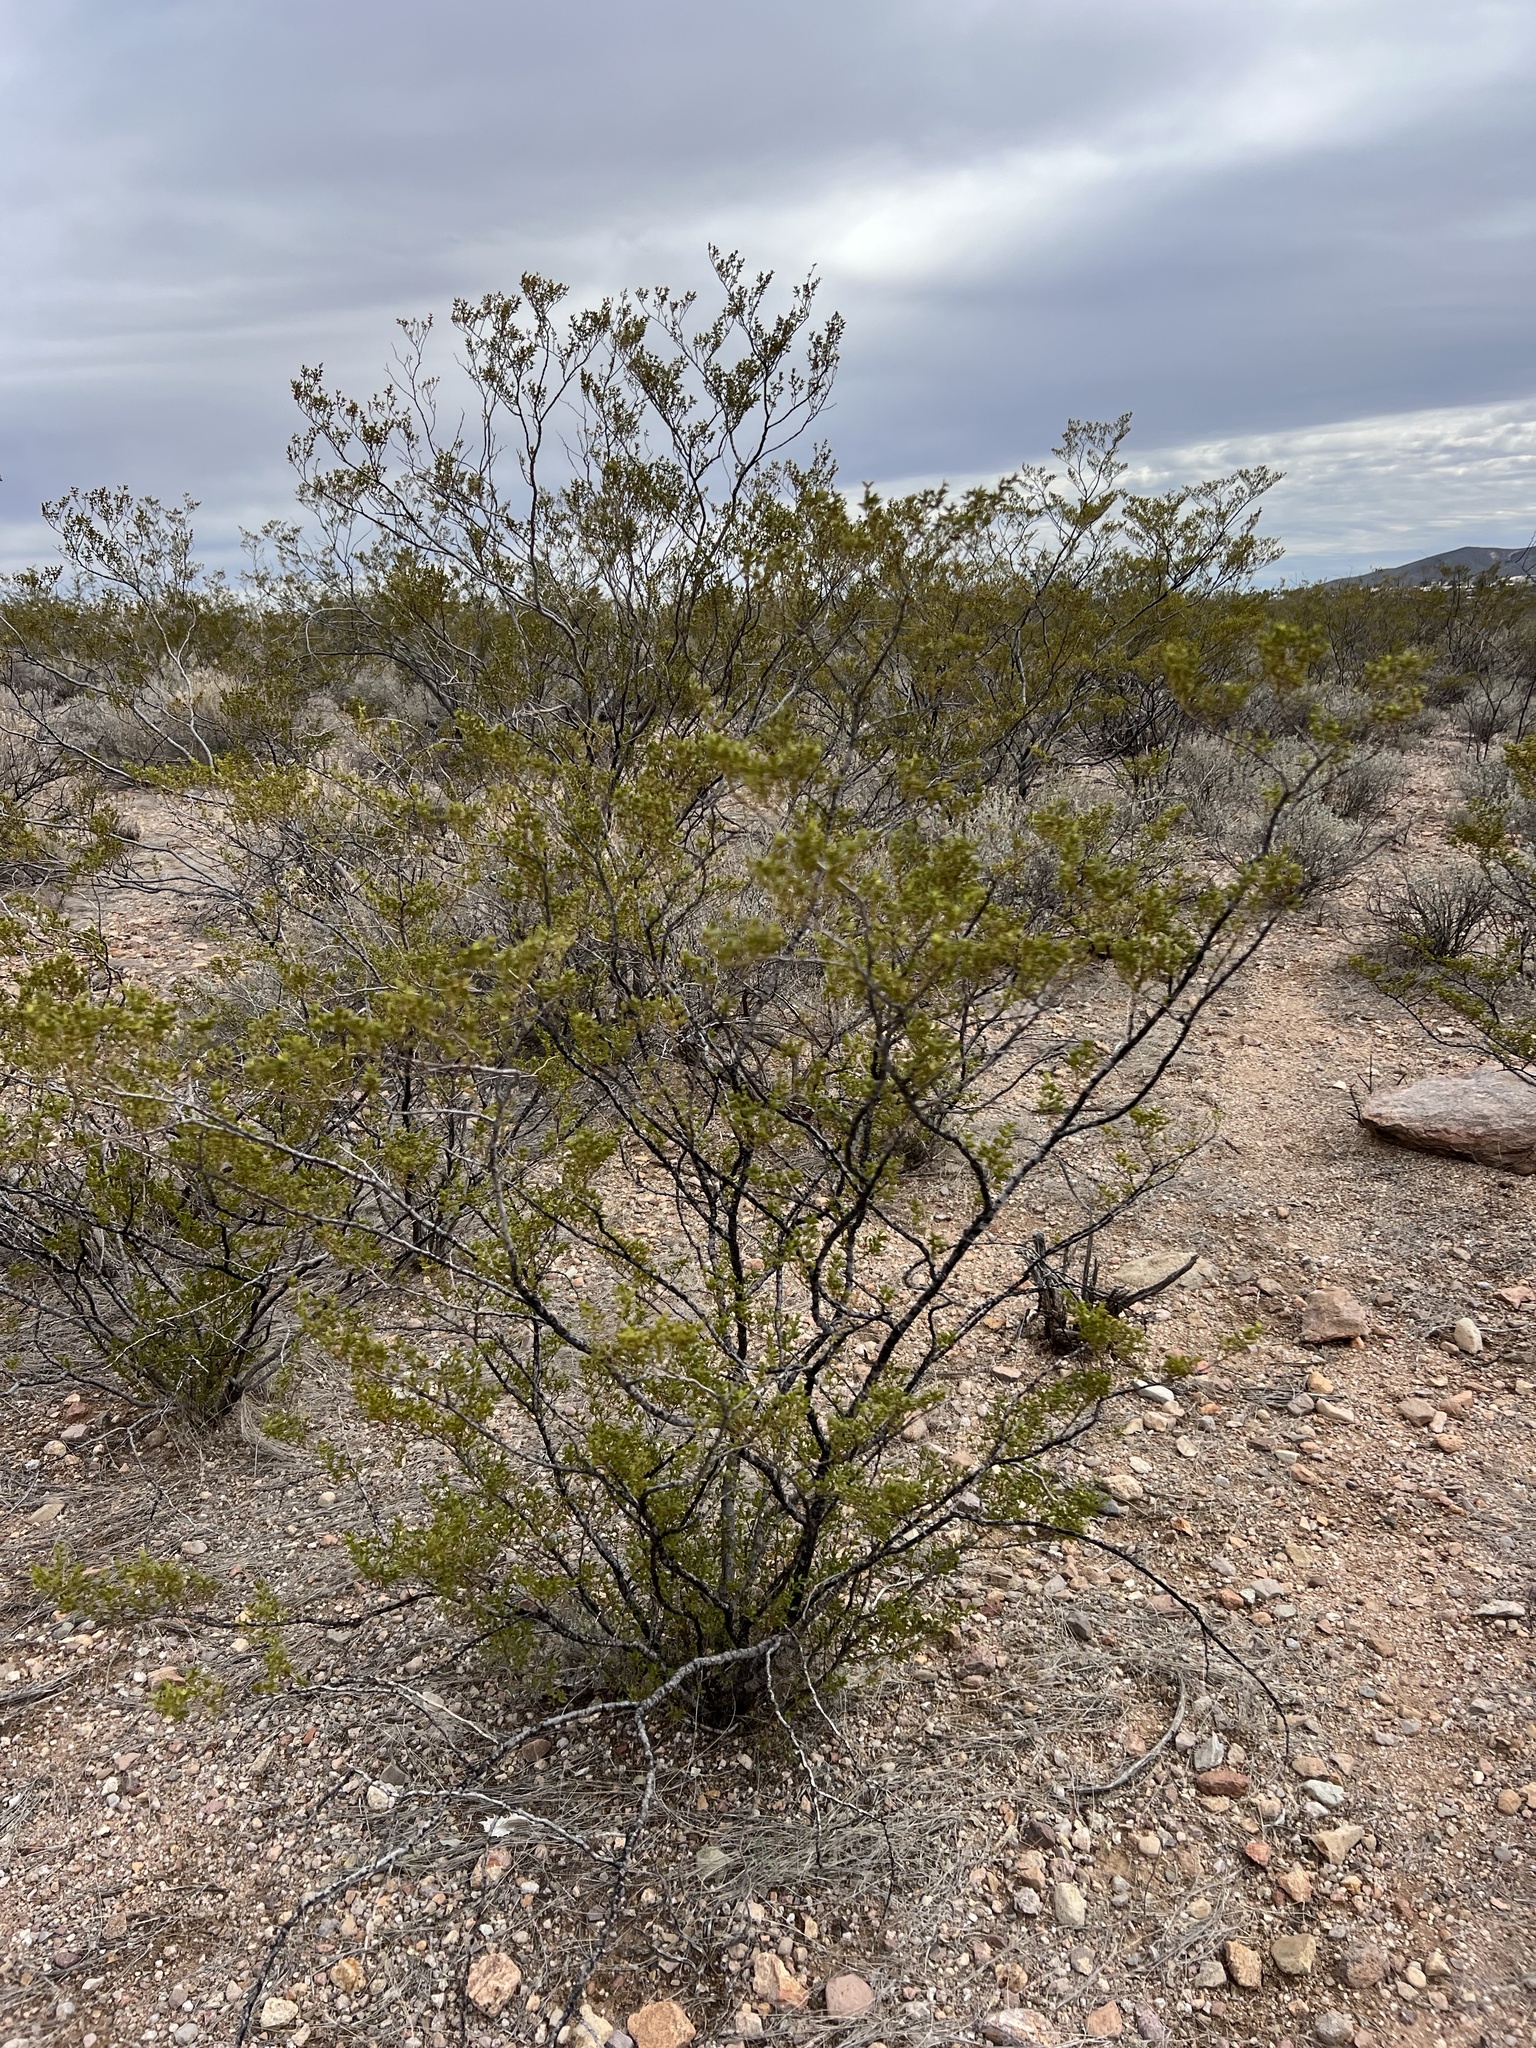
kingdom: Plantae
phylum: Tracheophyta
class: Magnoliopsida
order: Zygophyllales
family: Zygophyllaceae
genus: Larrea
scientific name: Larrea tridentata
